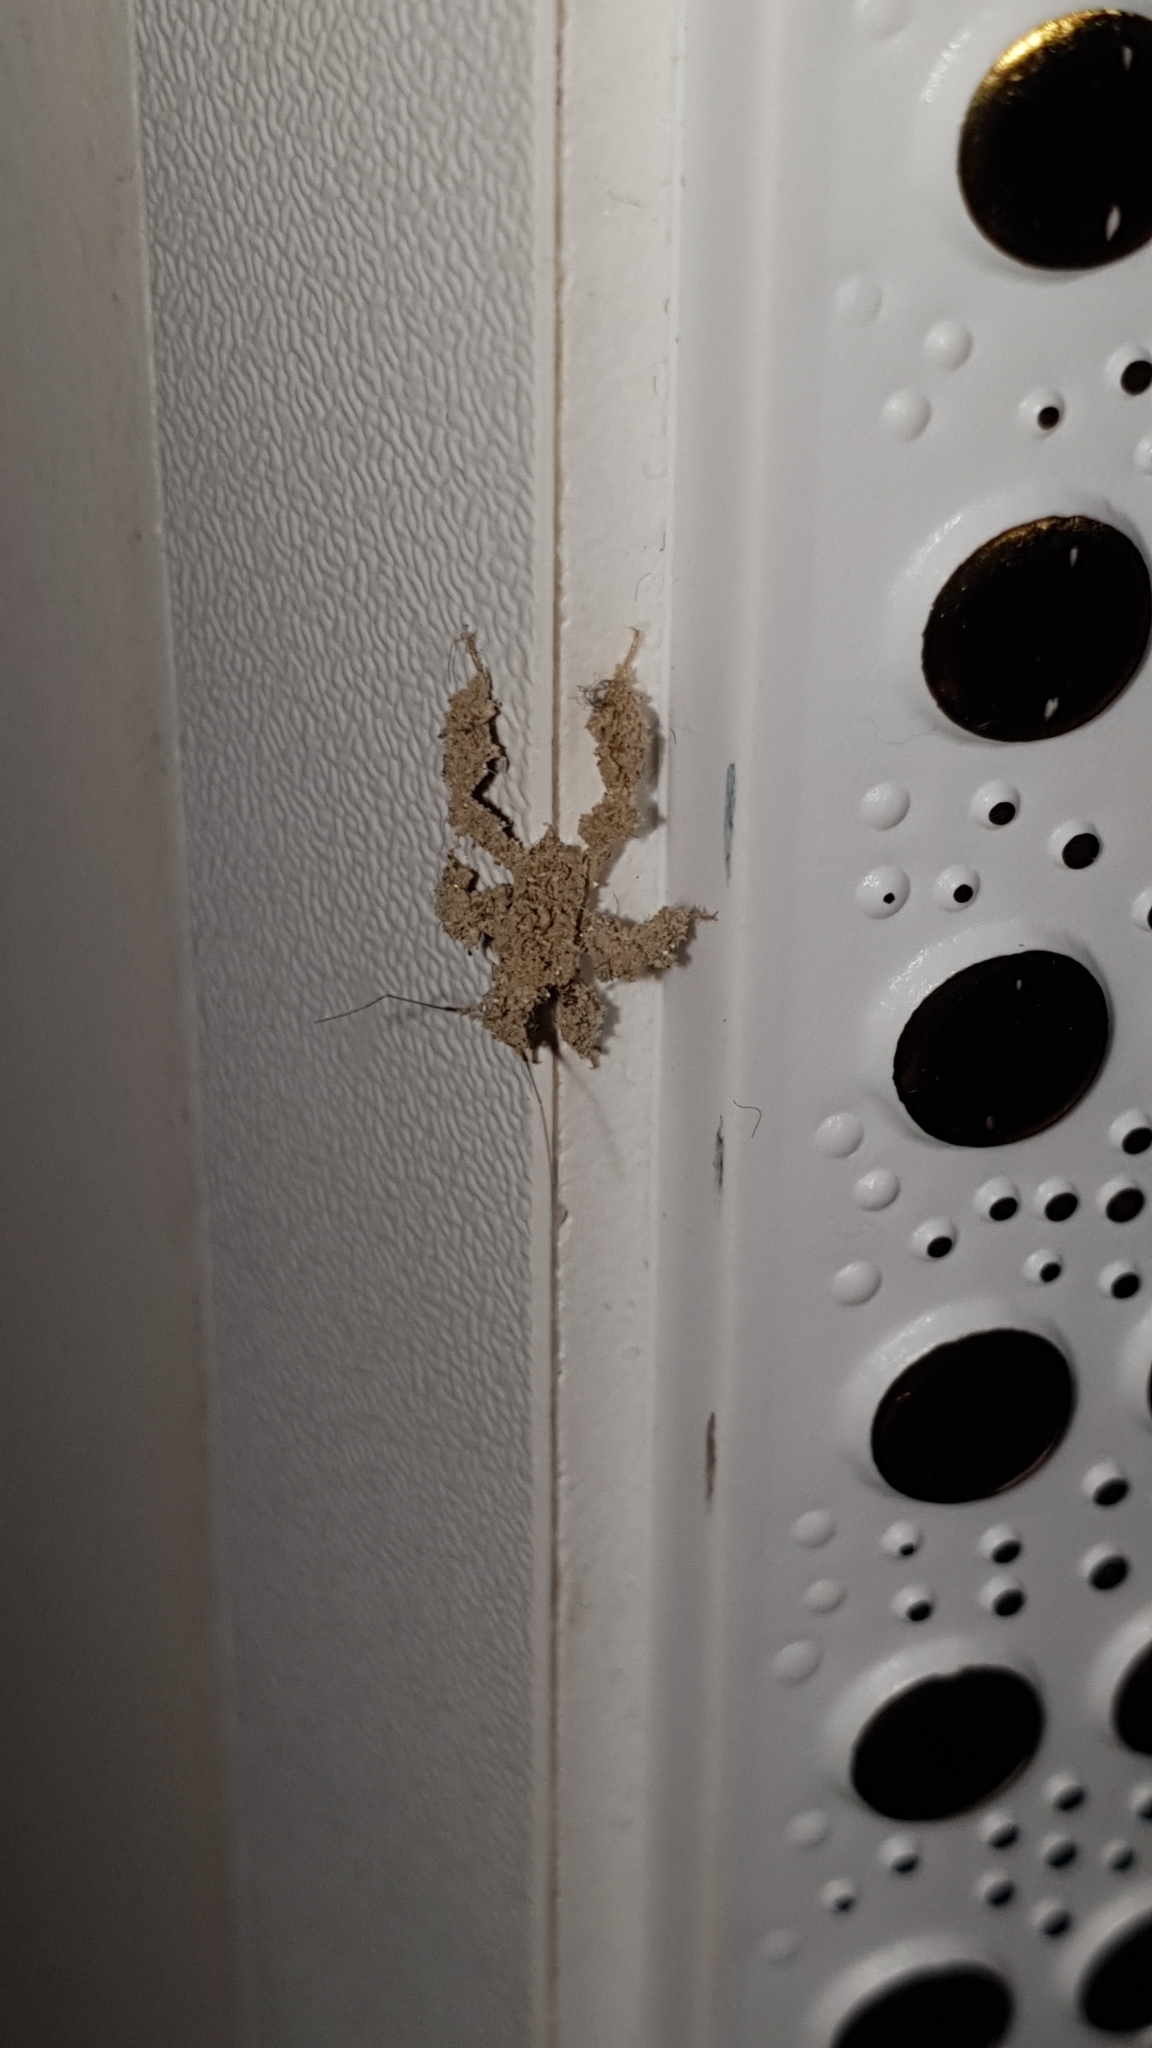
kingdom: Animalia
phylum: Arthropoda
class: Insecta
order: Hemiptera
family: Reduviidae
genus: Reduvius
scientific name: Reduvius personatus
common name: Masked hunter
